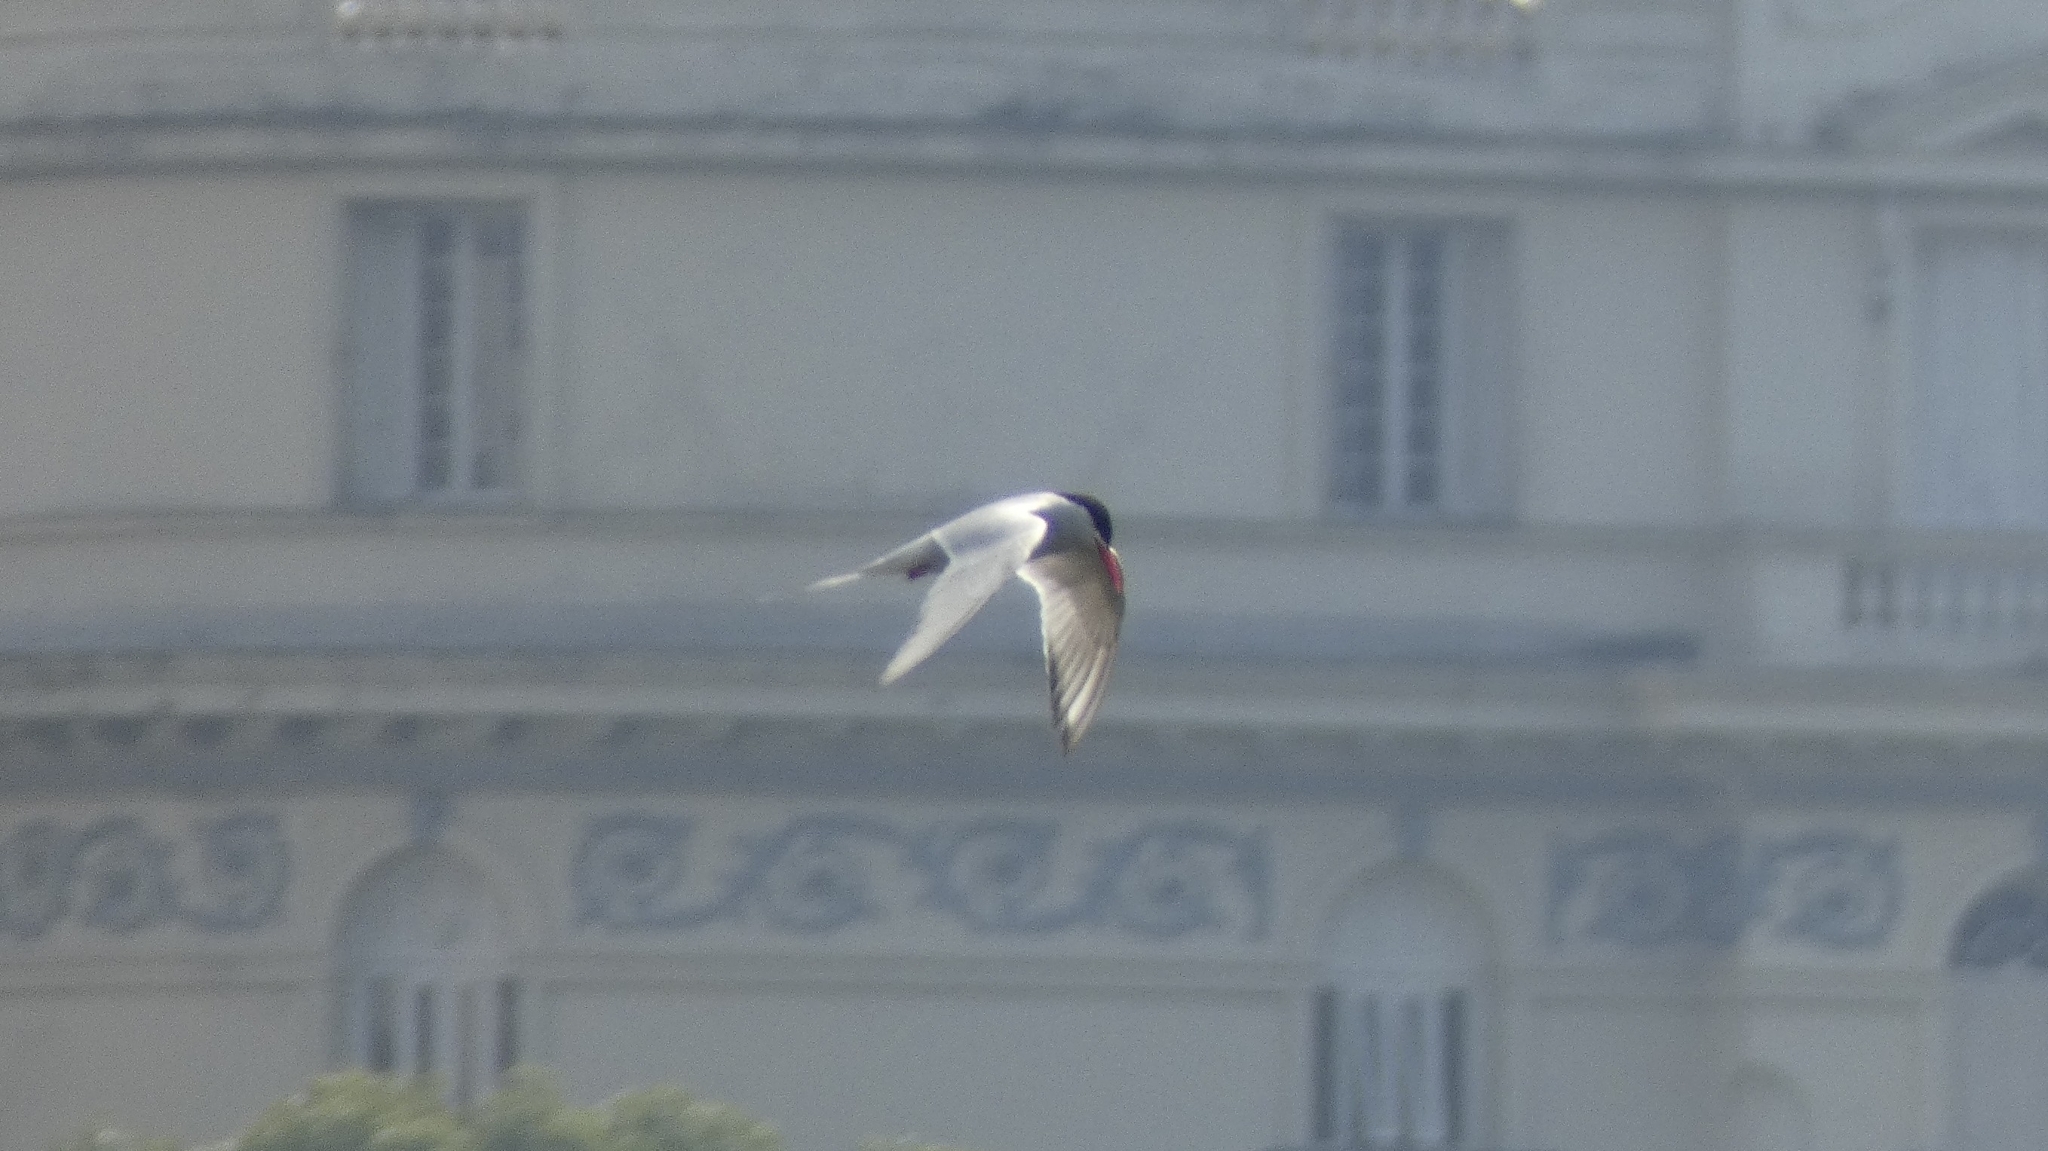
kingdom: Animalia
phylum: Chordata
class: Aves
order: Charadriiformes
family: Laridae
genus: Sterna
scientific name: Sterna hirundinacea
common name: South american tern
